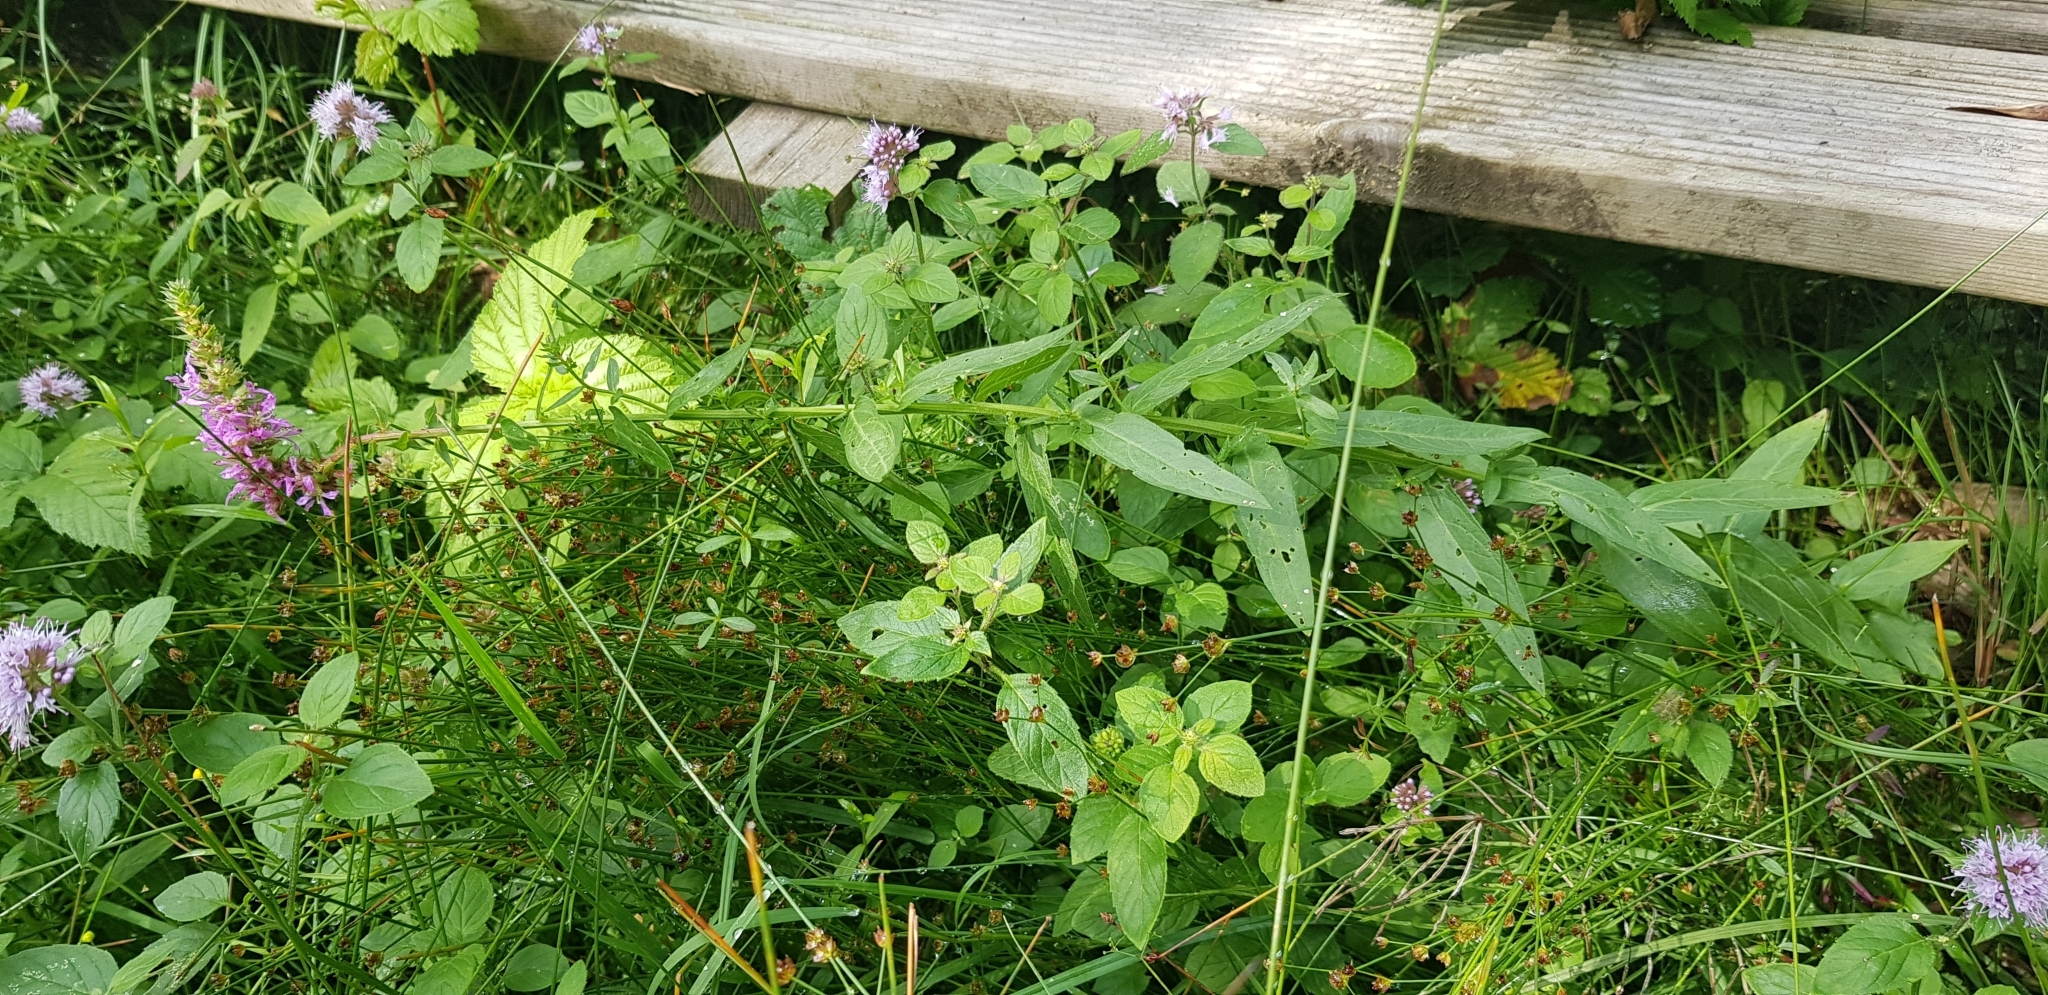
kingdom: Plantae
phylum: Tracheophyta
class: Magnoliopsida
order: Myrtales
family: Lythraceae
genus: Lythrum
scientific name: Lythrum salicaria
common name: Purple loosestrife
